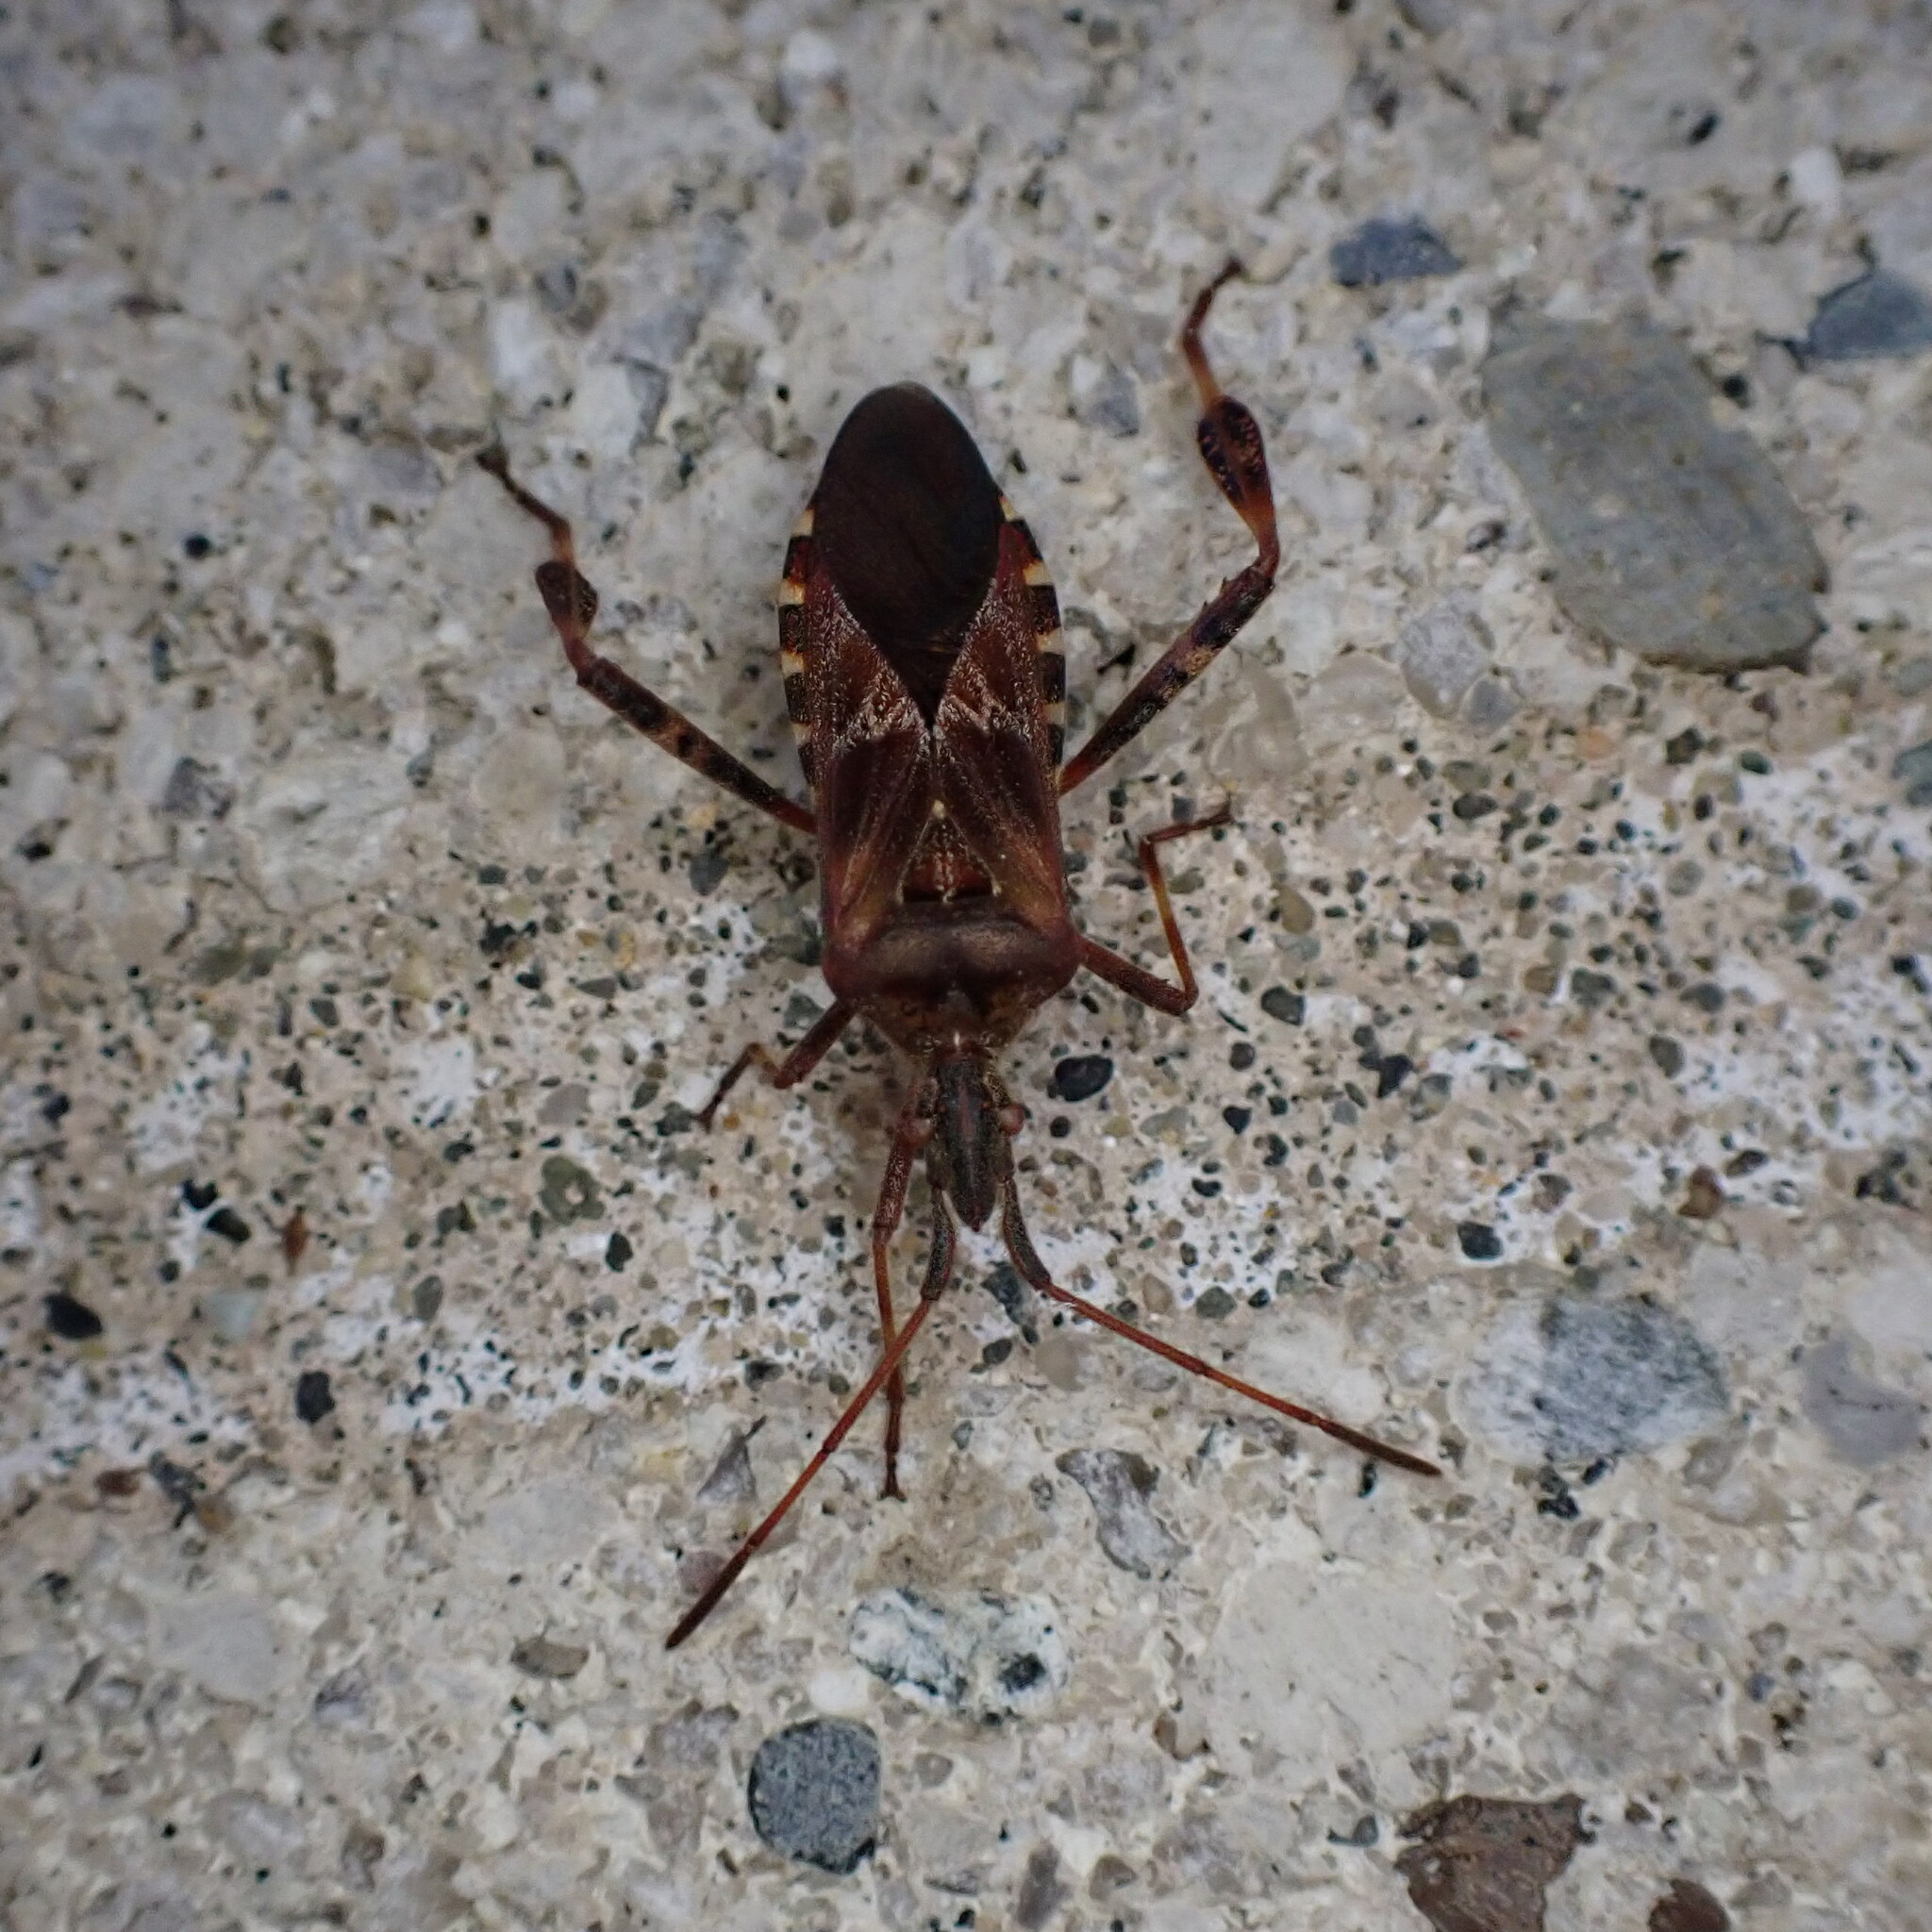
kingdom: Animalia
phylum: Arthropoda
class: Insecta
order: Hemiptera
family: Coreidae
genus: Leptoglossus
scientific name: Leptoglossus occidentalis
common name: Western conifer-seed bug
